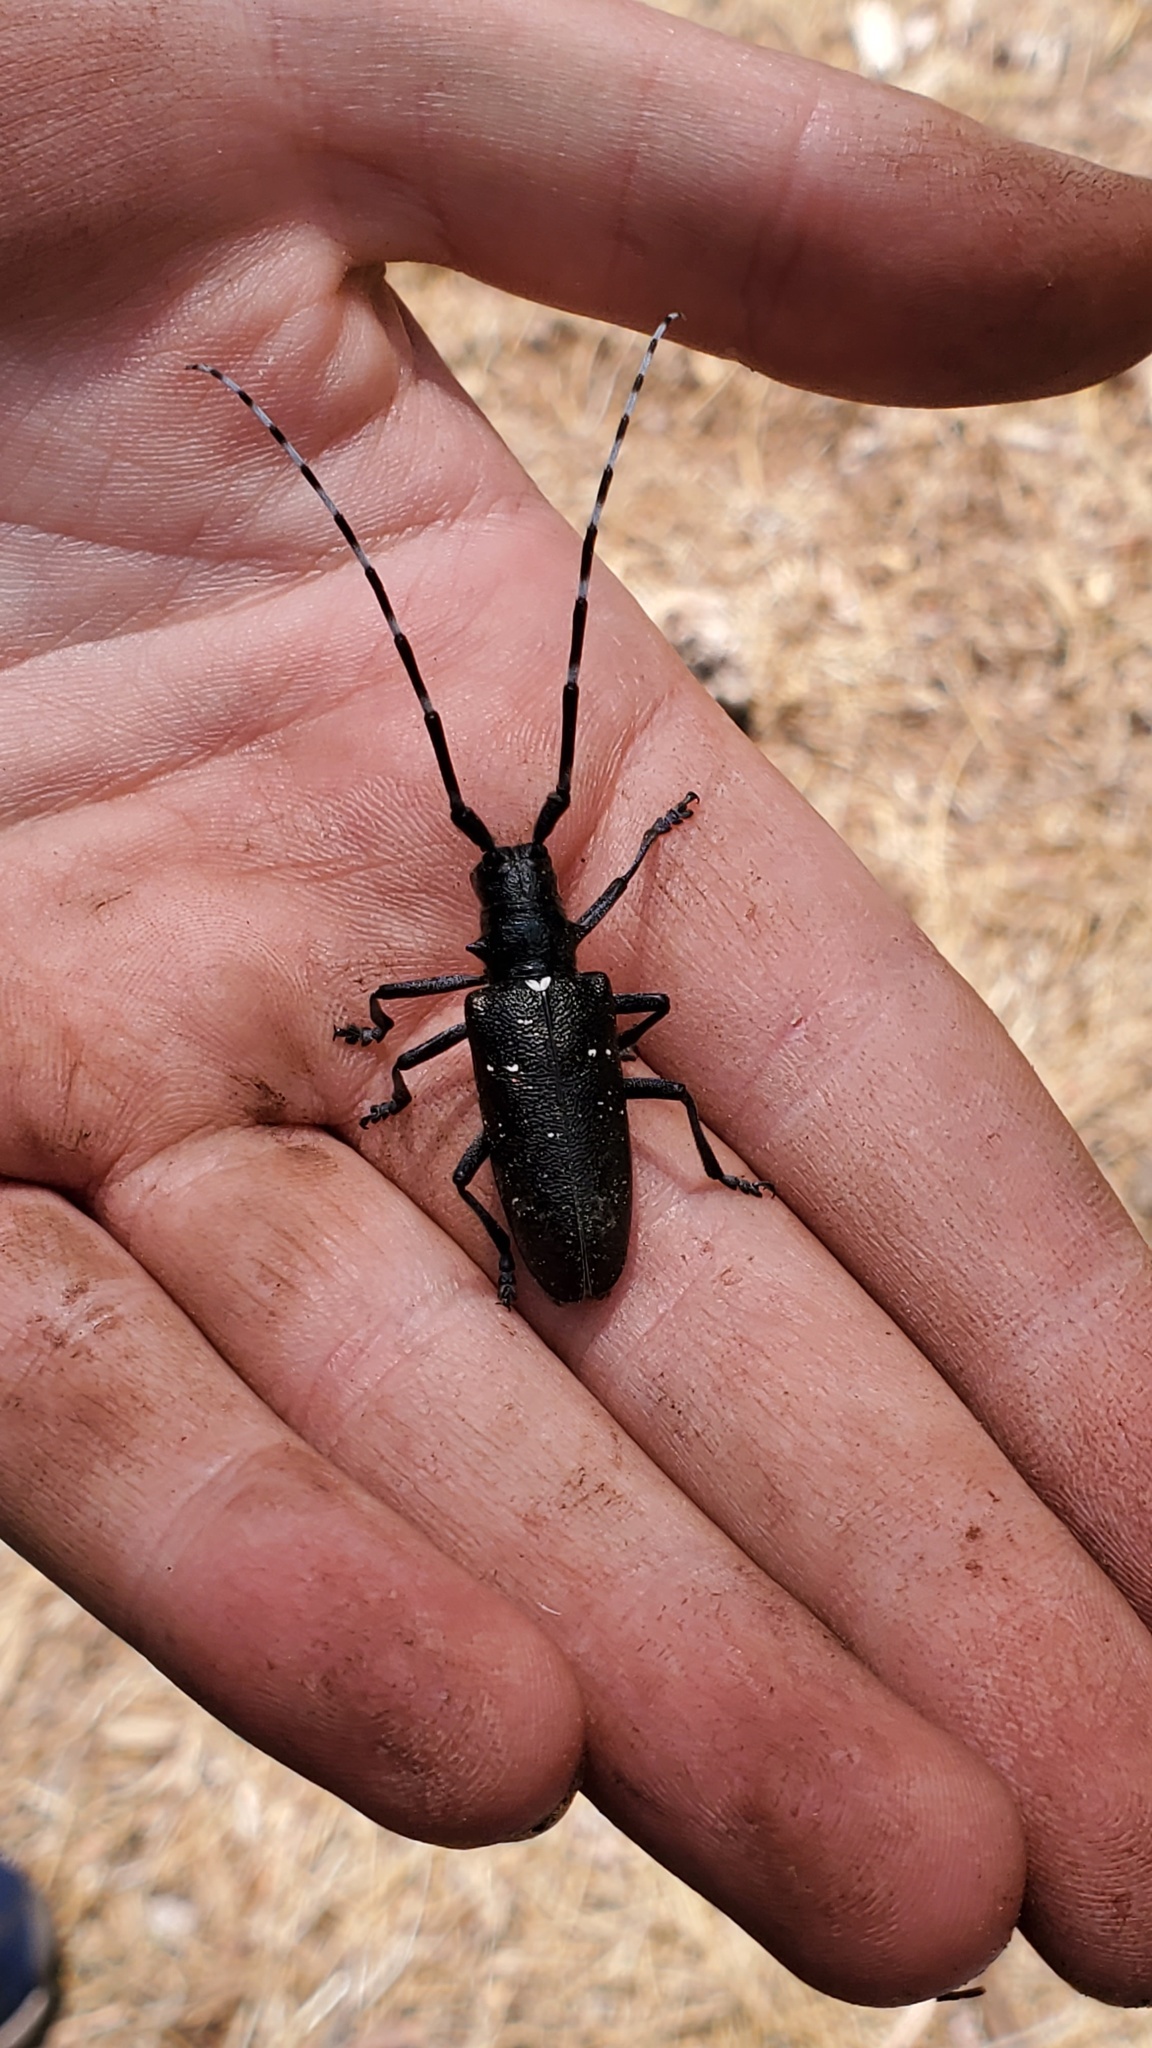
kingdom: Animalia
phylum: Arthropoda
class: Insecta
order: Coleoptera
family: Cerambycidae
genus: Monochamus
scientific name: Monochamus scutellatus
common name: White-spotted sawyer beetle
